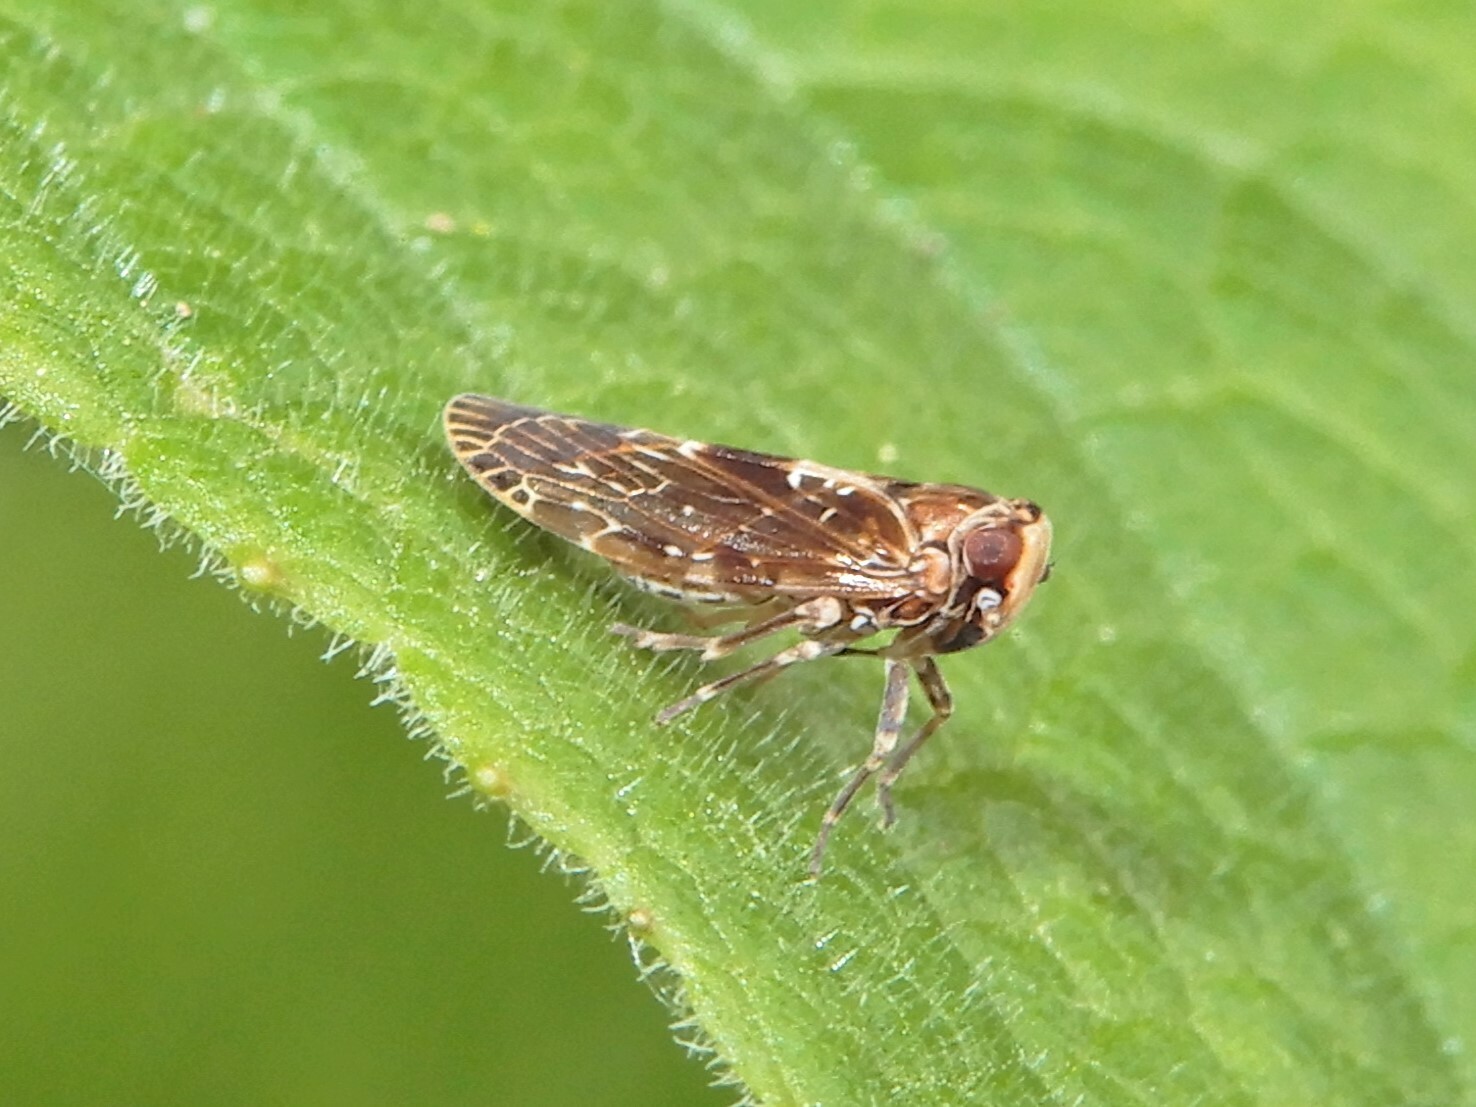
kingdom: Animalia
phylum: Arthropoda
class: Insecta
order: Hemiptera
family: Achilidae
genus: Agandecca
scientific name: Agandecca annectens
